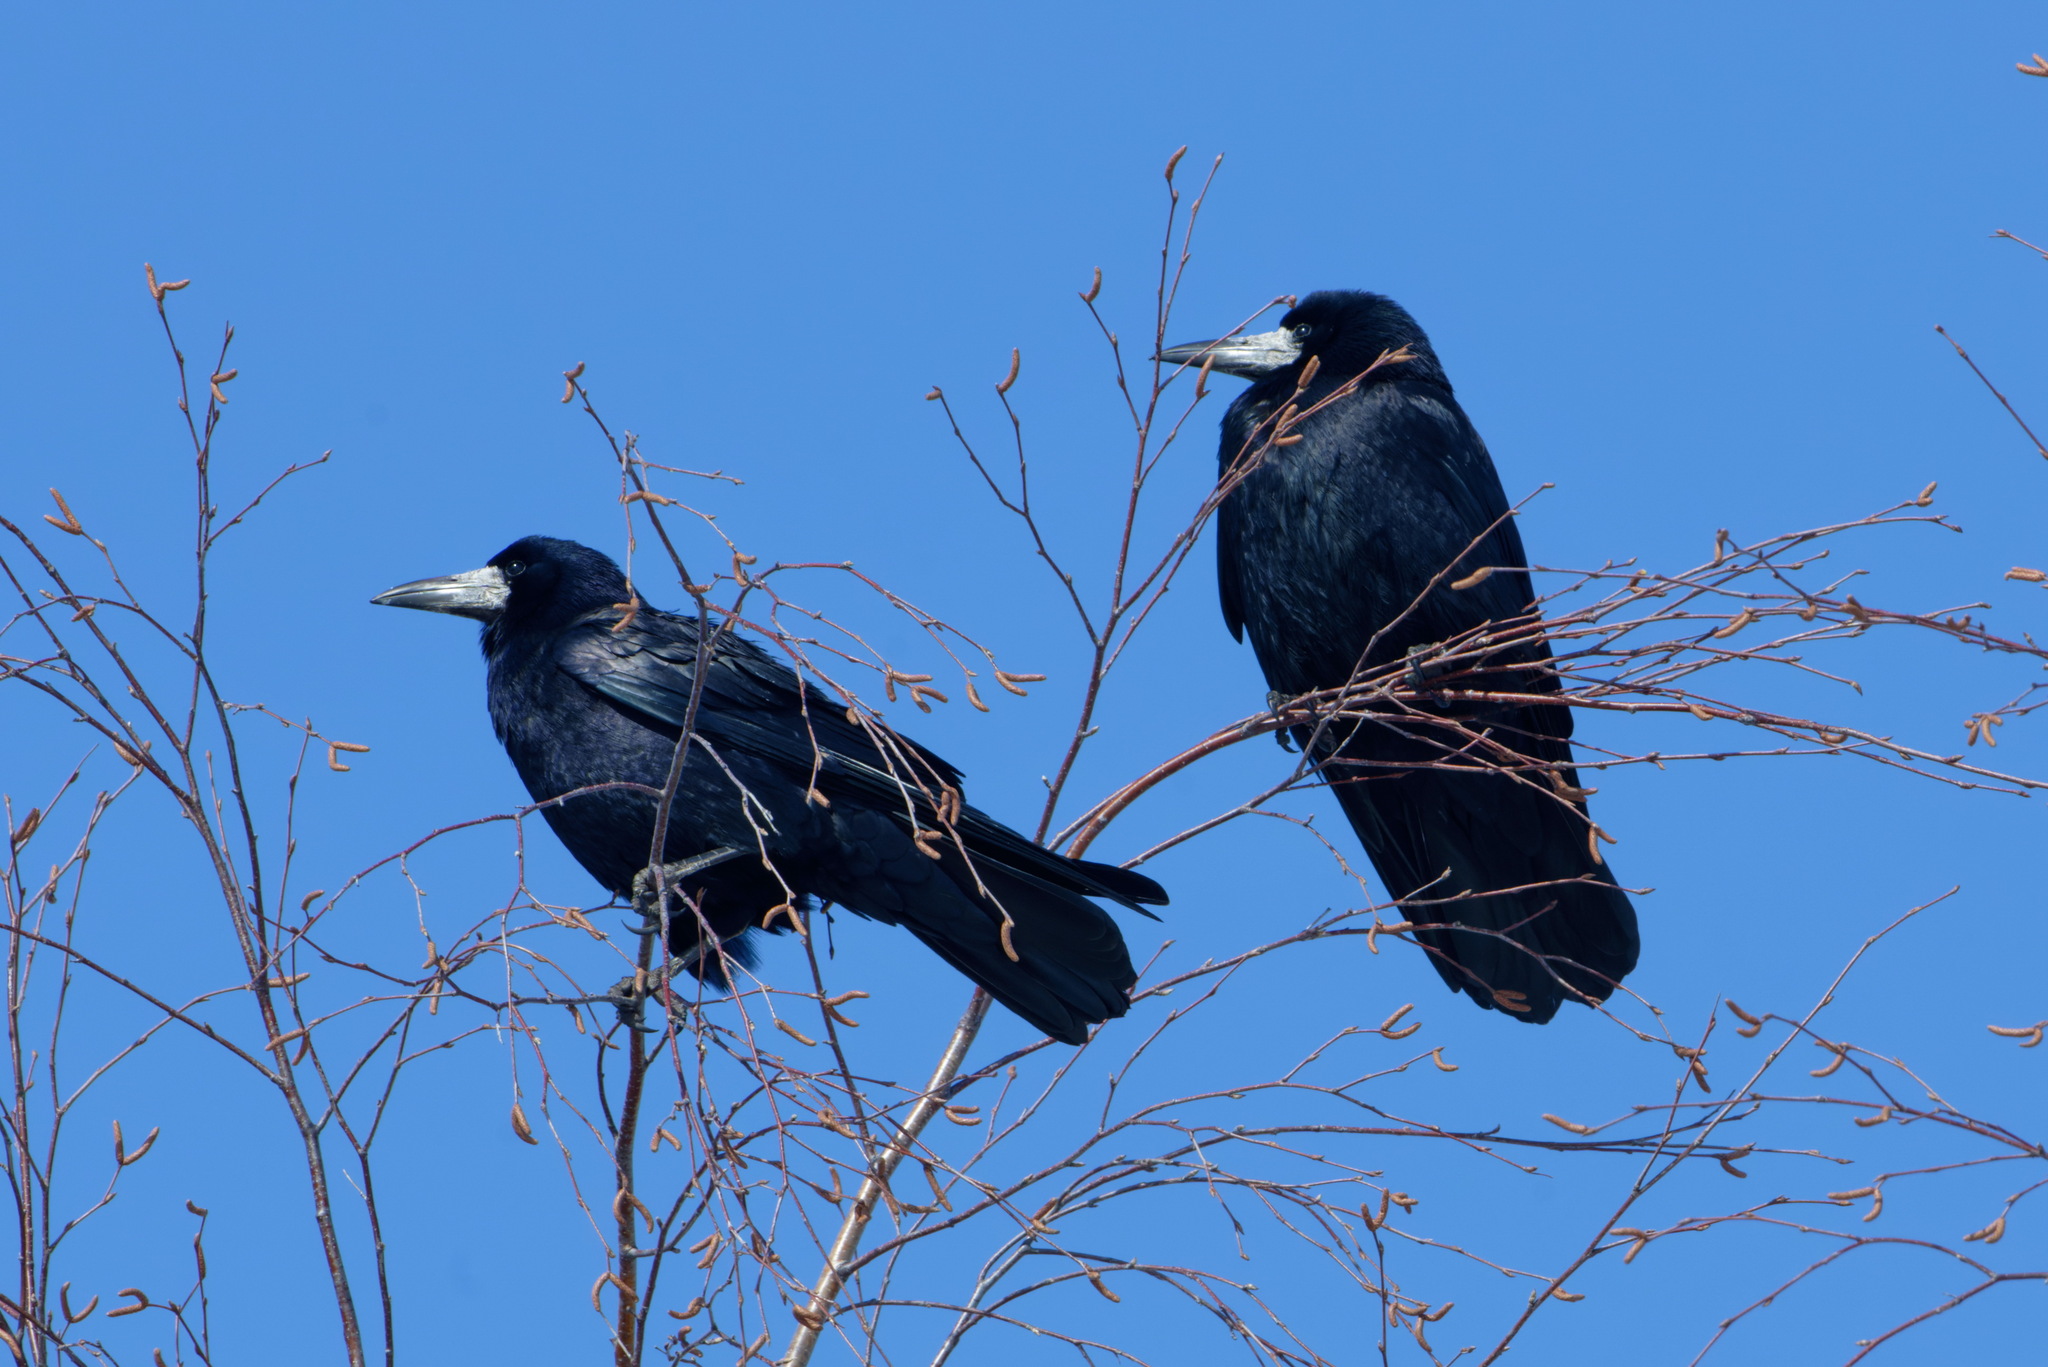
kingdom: Animalia
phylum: Chordata
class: Aves
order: Passeriformes
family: Corvidae
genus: Corvus
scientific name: Corvus frugilegus
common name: Rook
